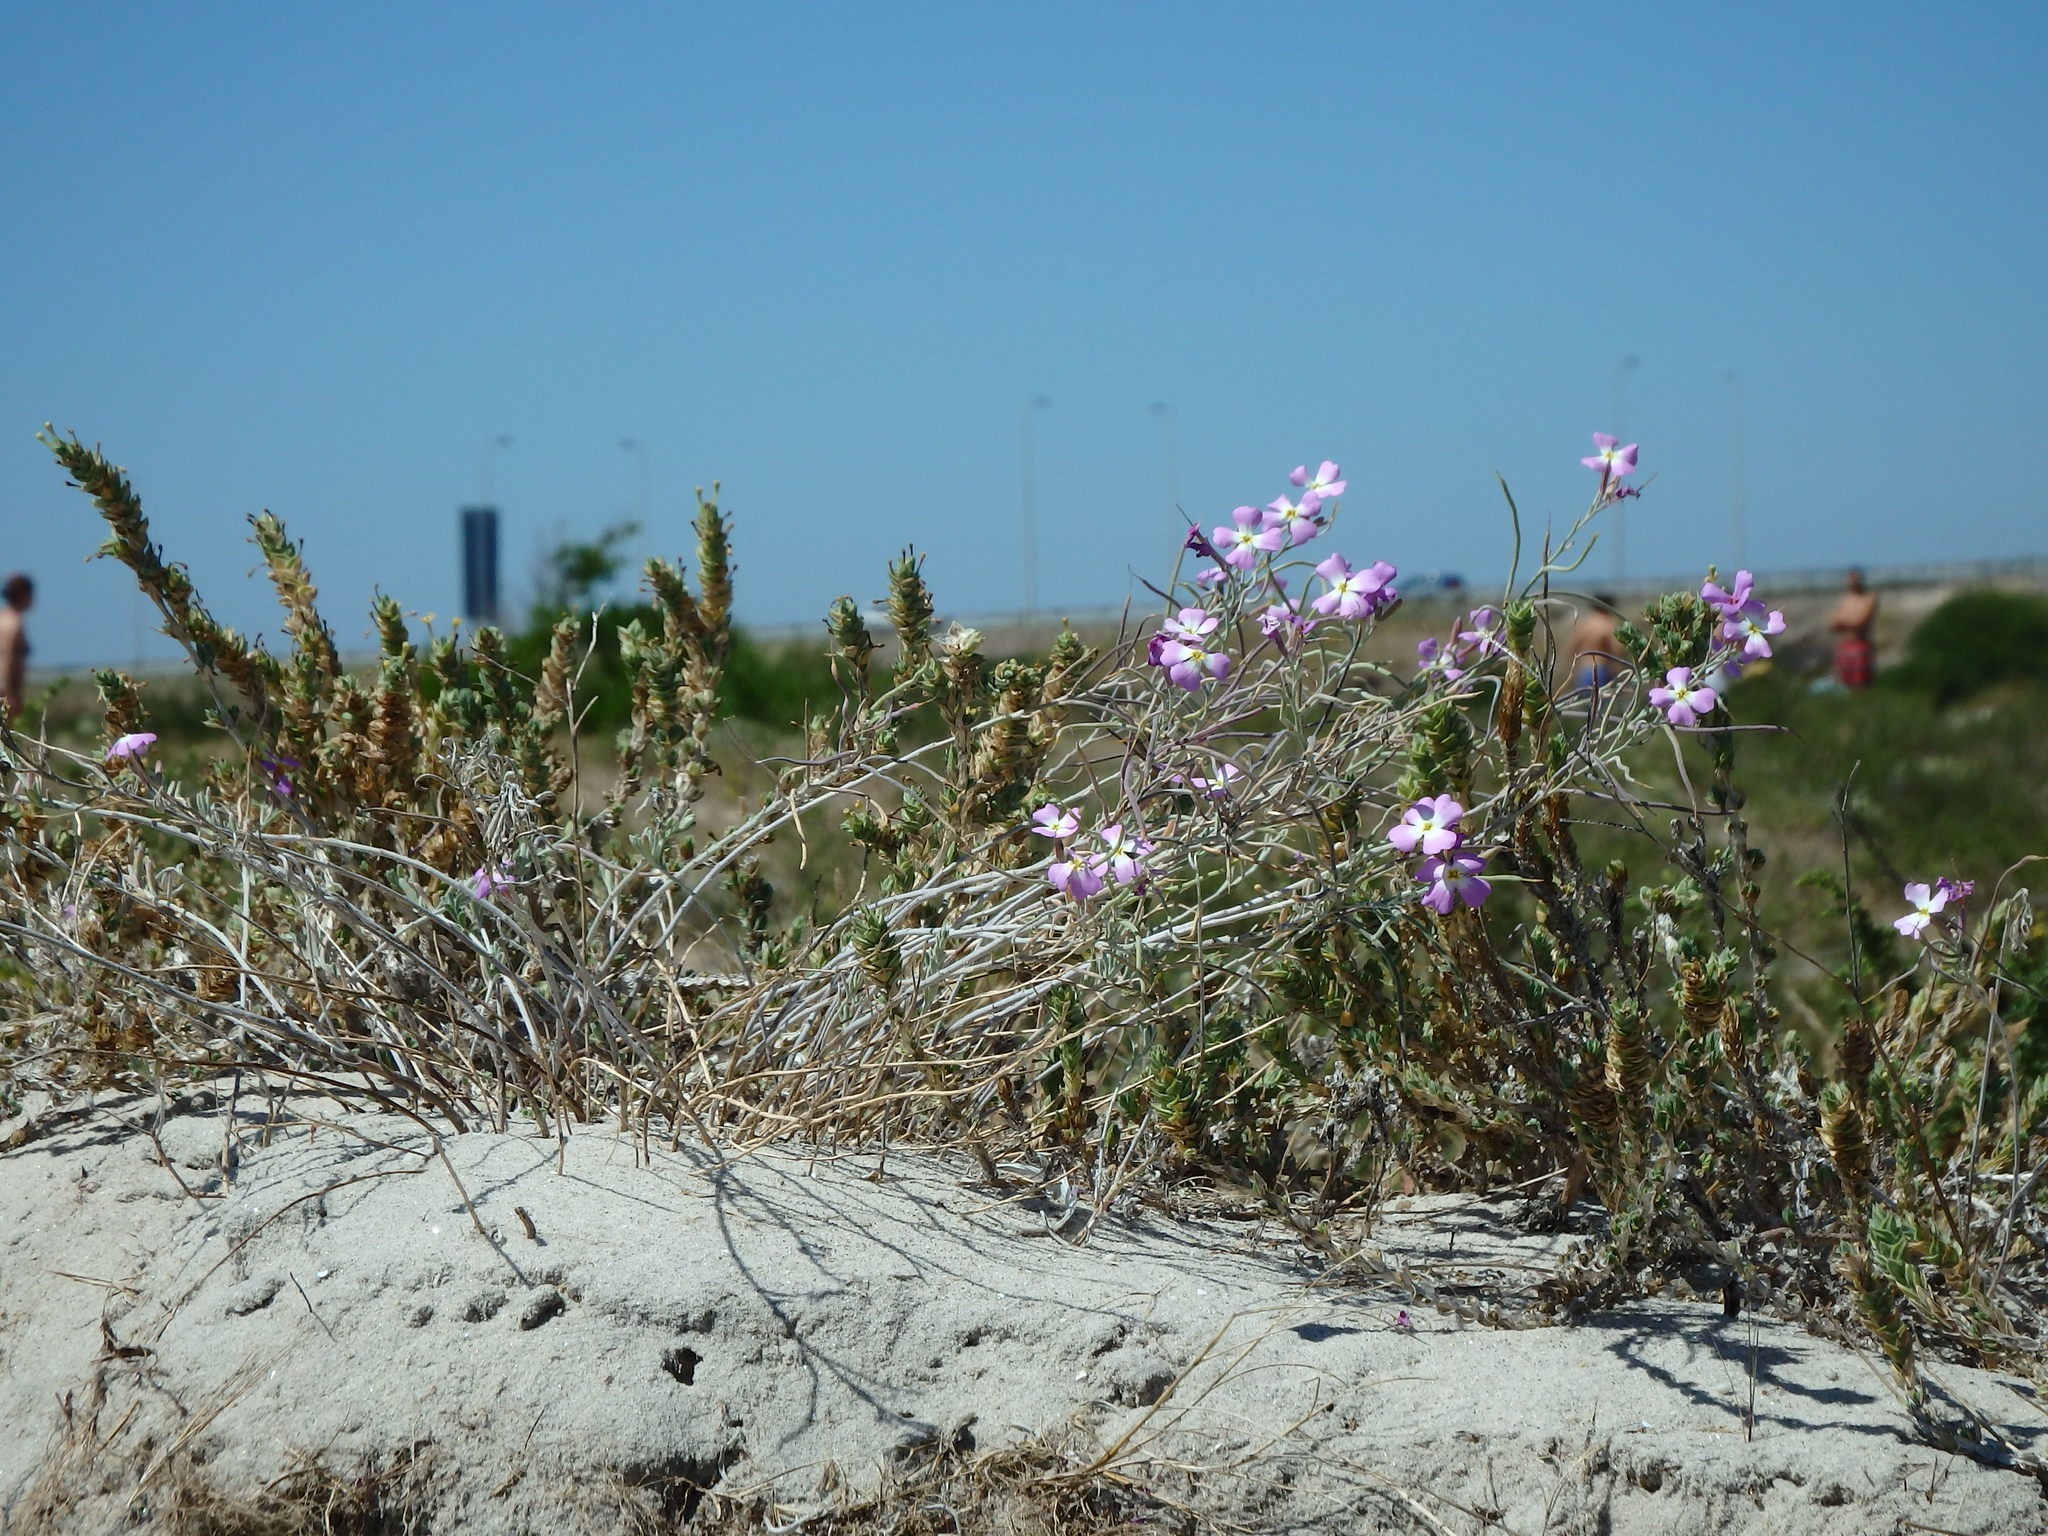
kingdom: Plantae
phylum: Tracheophyta
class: Magnoliopsida
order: Brassicales
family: Brassicaceae
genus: Marcuskochia
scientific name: Marcuskochia littorea
